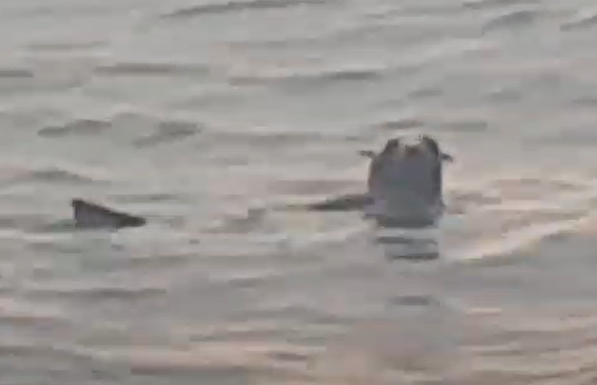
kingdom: Animalia
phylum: Chordata
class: Mammalia
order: Carnivora
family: Otariidae
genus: Arctocephalus
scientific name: Arctocephalus forsteri
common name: New zealand fur seal
